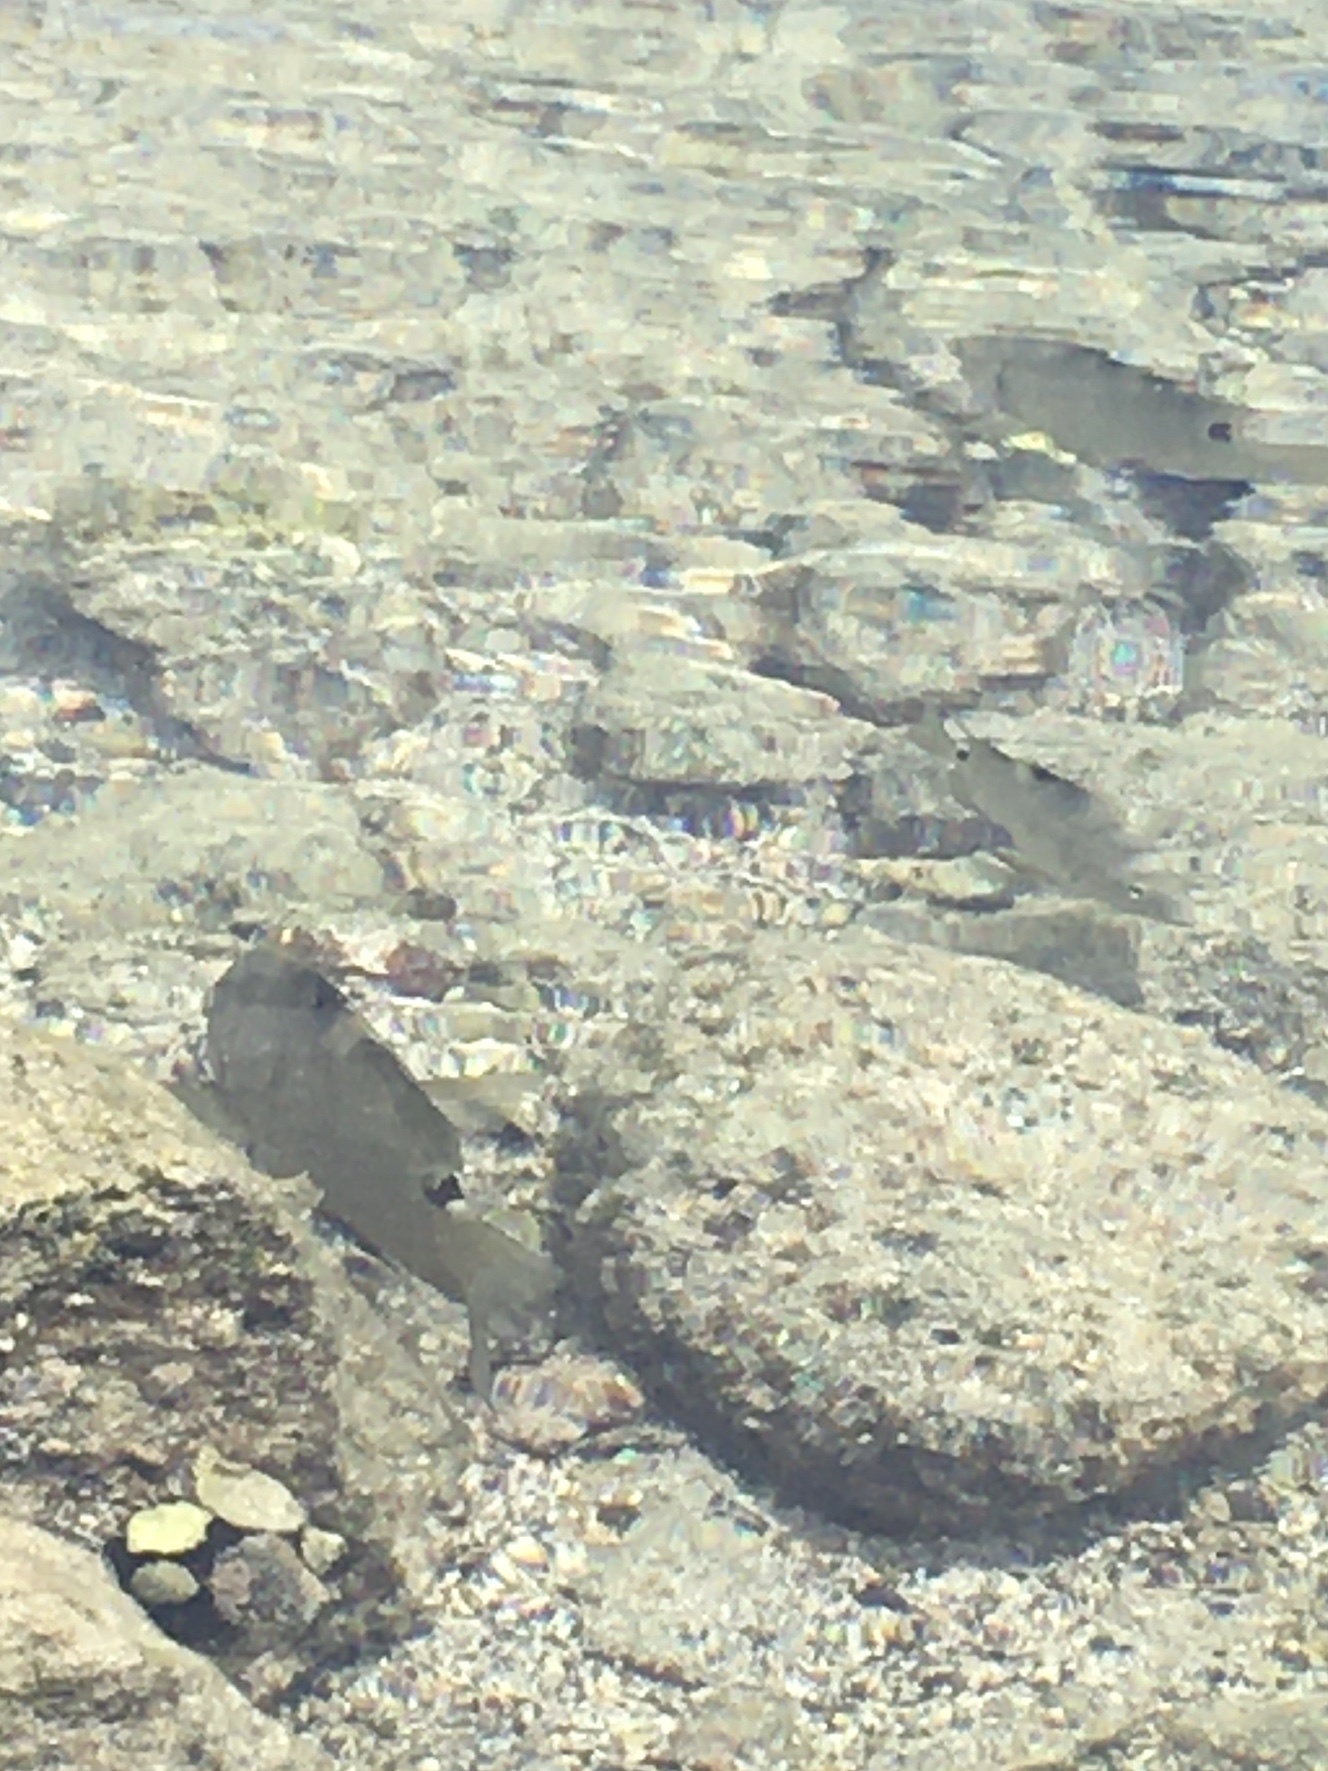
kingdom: Animalia
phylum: Chordata
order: Perciformes
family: Pomacentridae
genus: Abudefduf
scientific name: Abudefduf sordidus
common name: Blackspot sergeant
